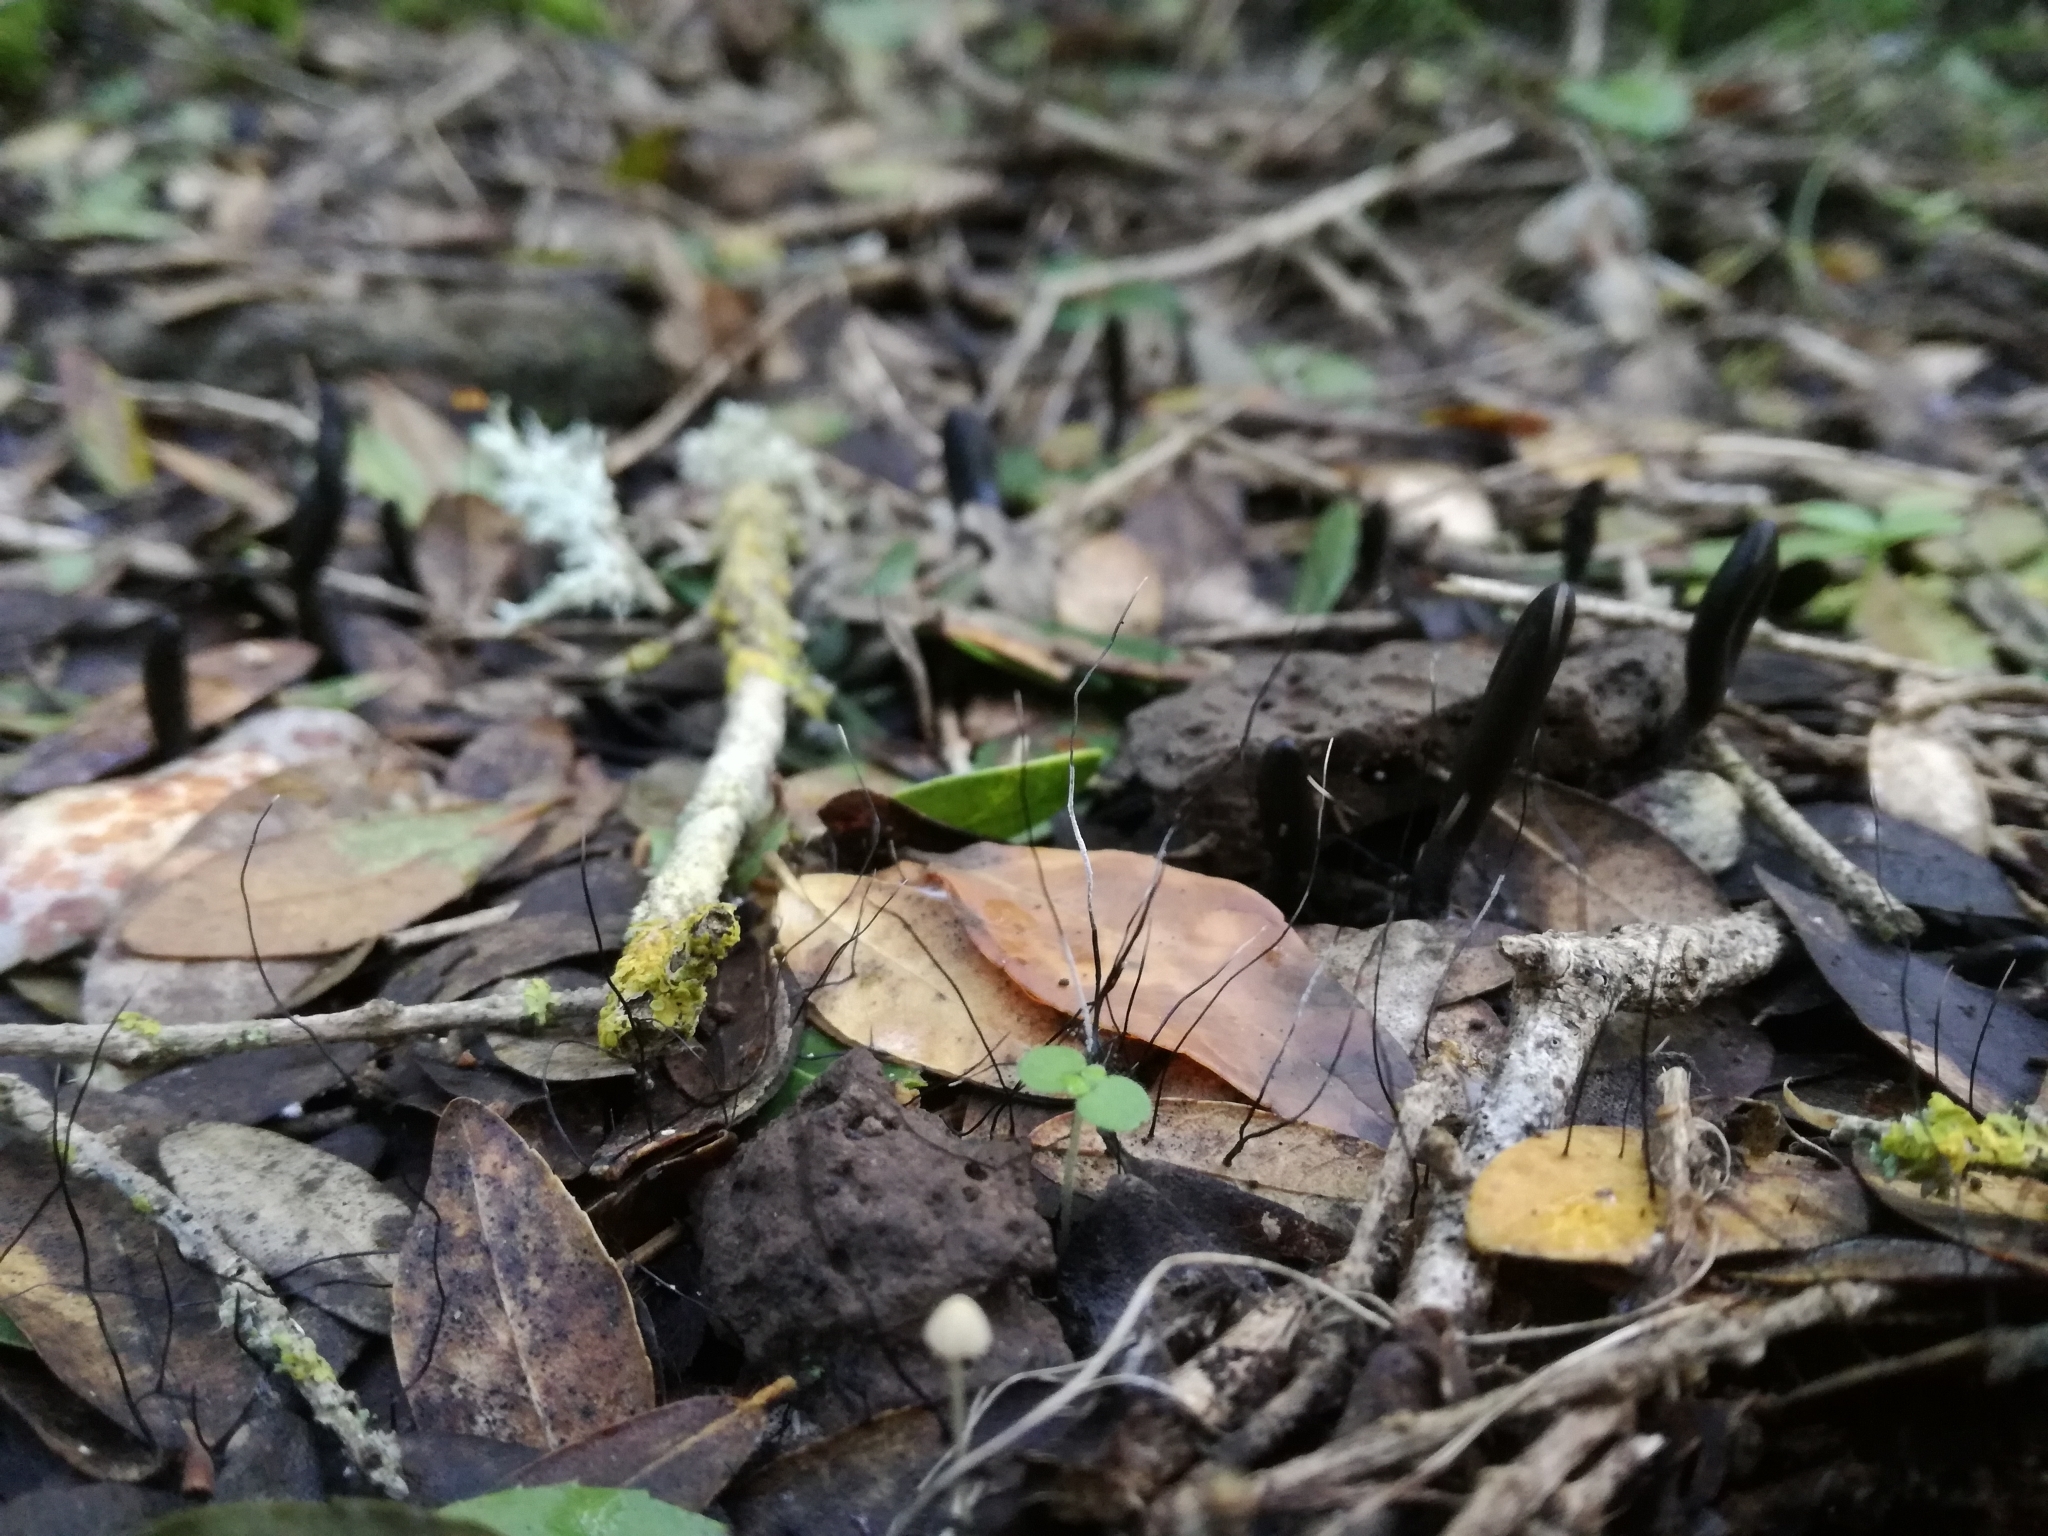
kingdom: Fungi
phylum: Ascomycota
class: Sordariomycetes
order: Xylariales
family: Xylariaceae
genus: Xylaria
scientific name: Xylaria filiformis
